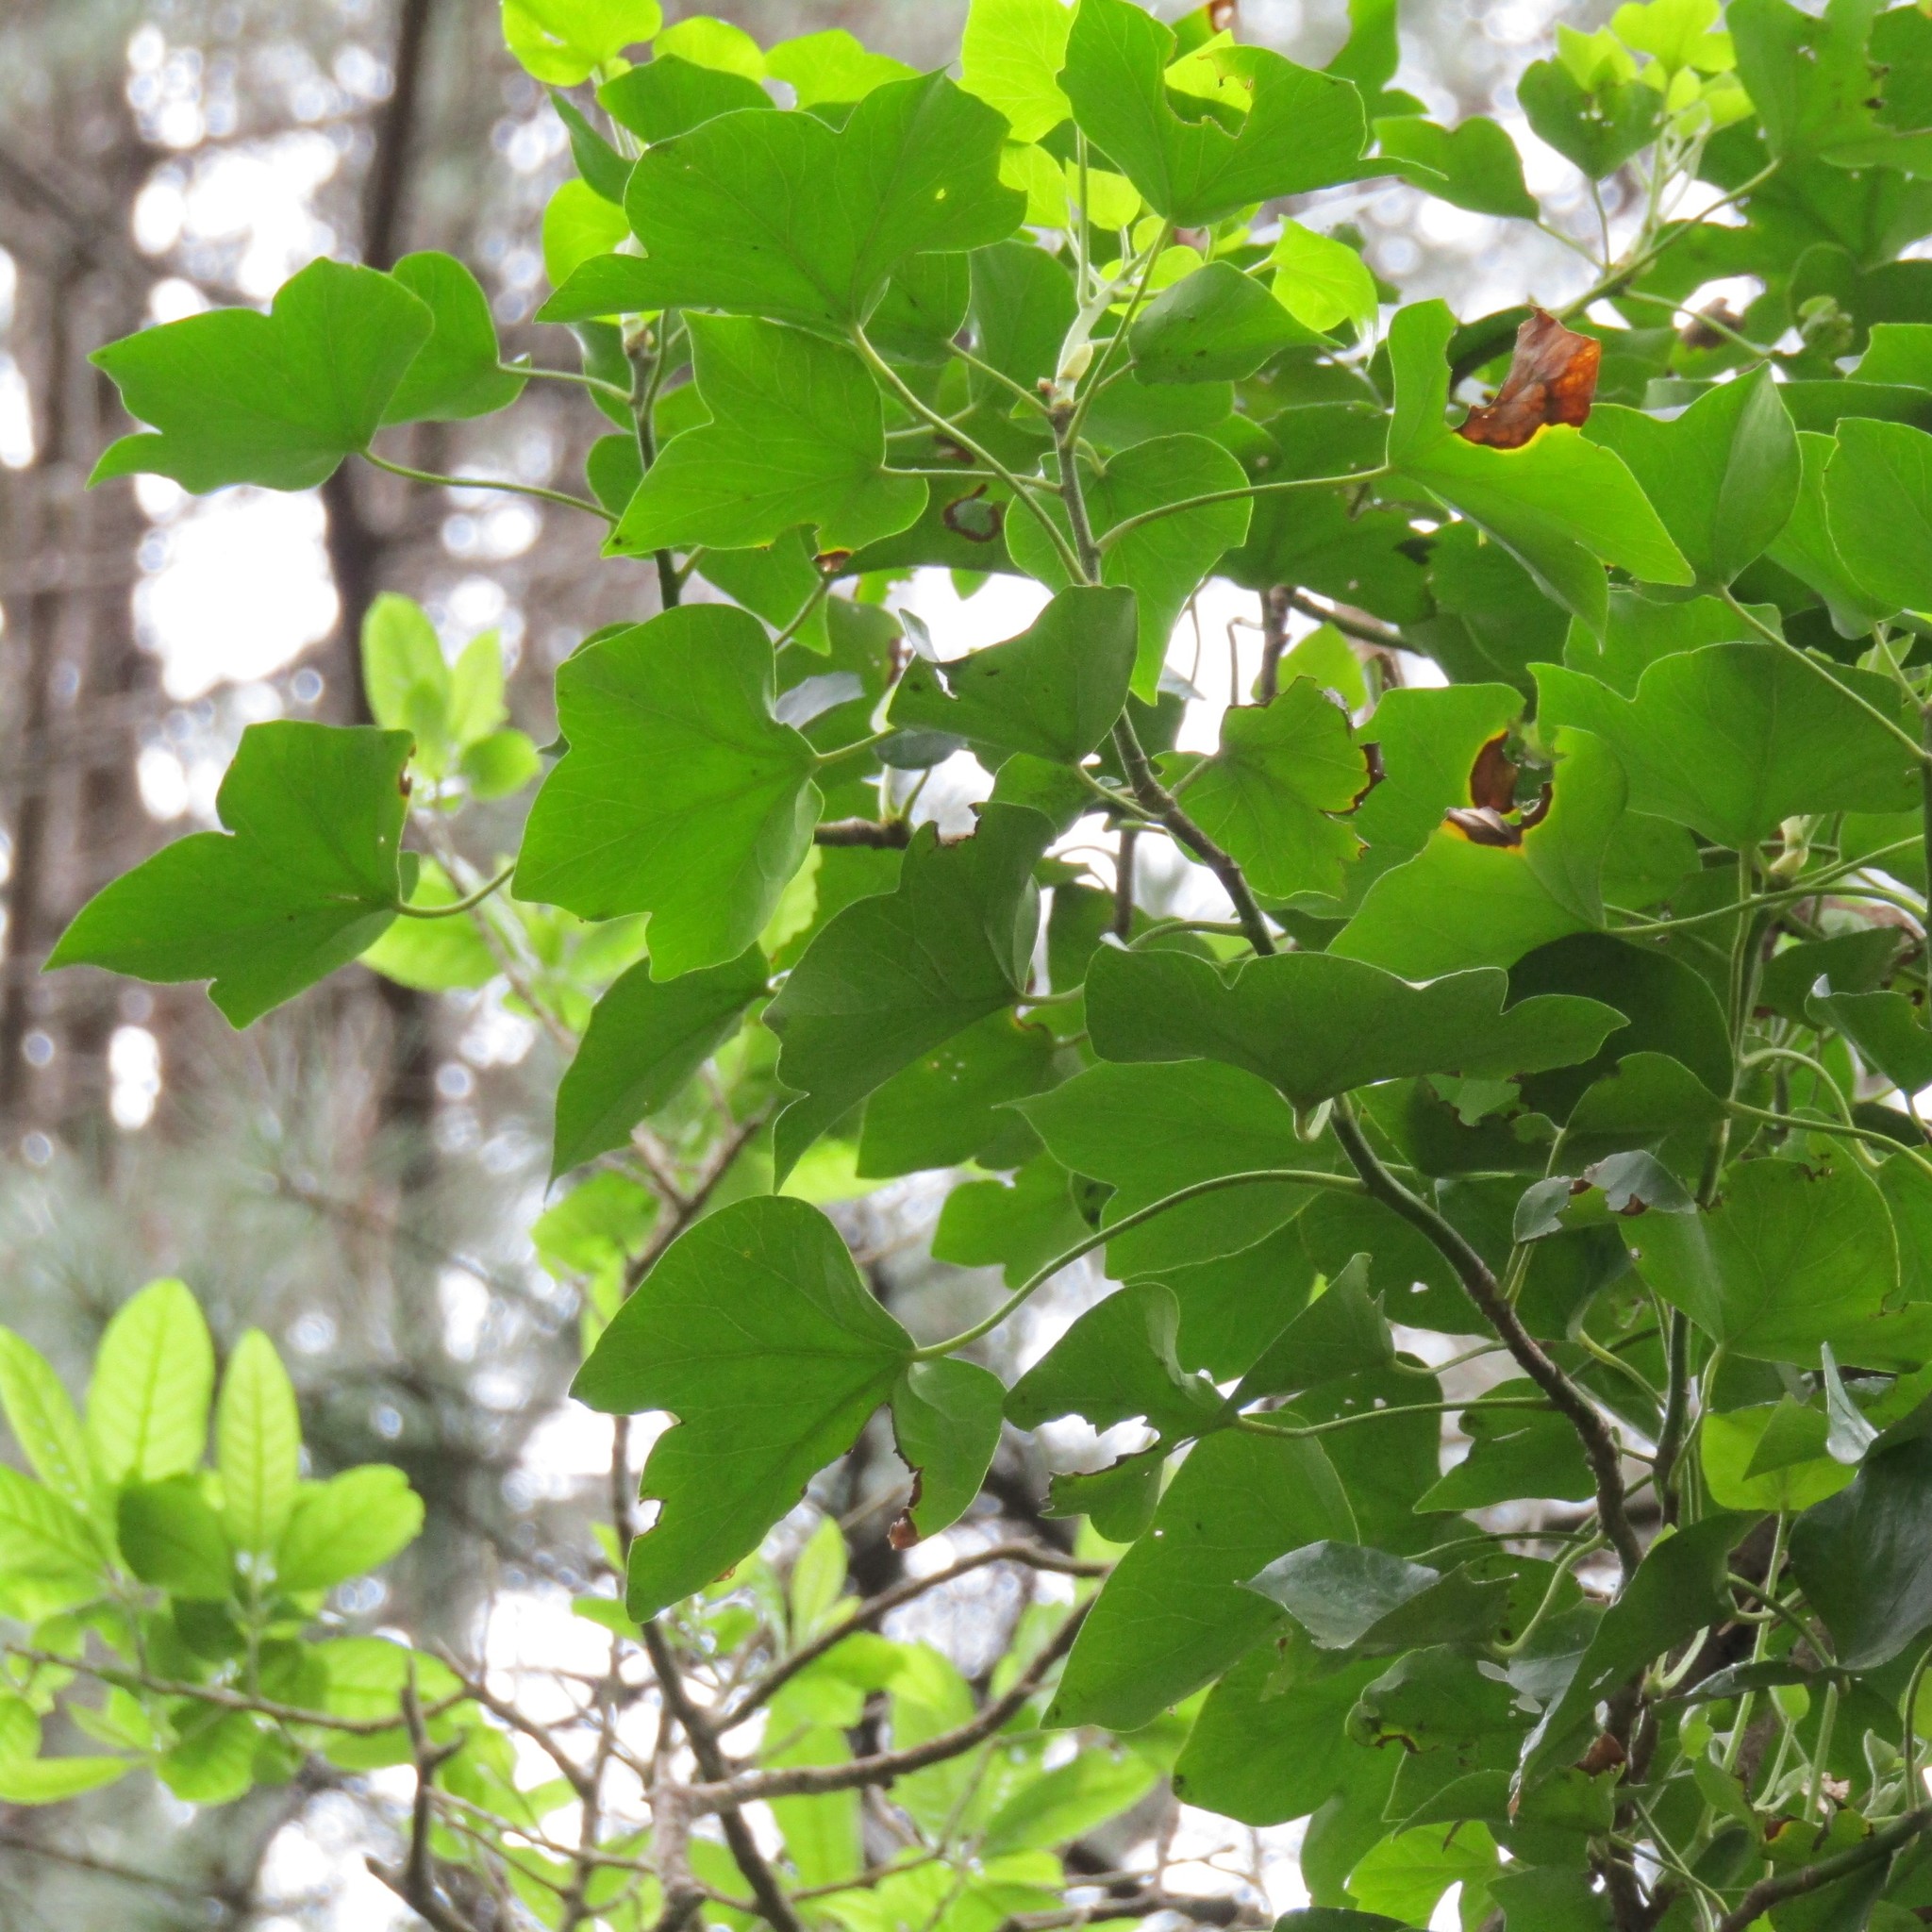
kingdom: Plantae
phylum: Tracheophyta
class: Magnoliopsida
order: Apiales
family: Araliaceae
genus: Hedera
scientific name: Hedera helix
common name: Ivy
